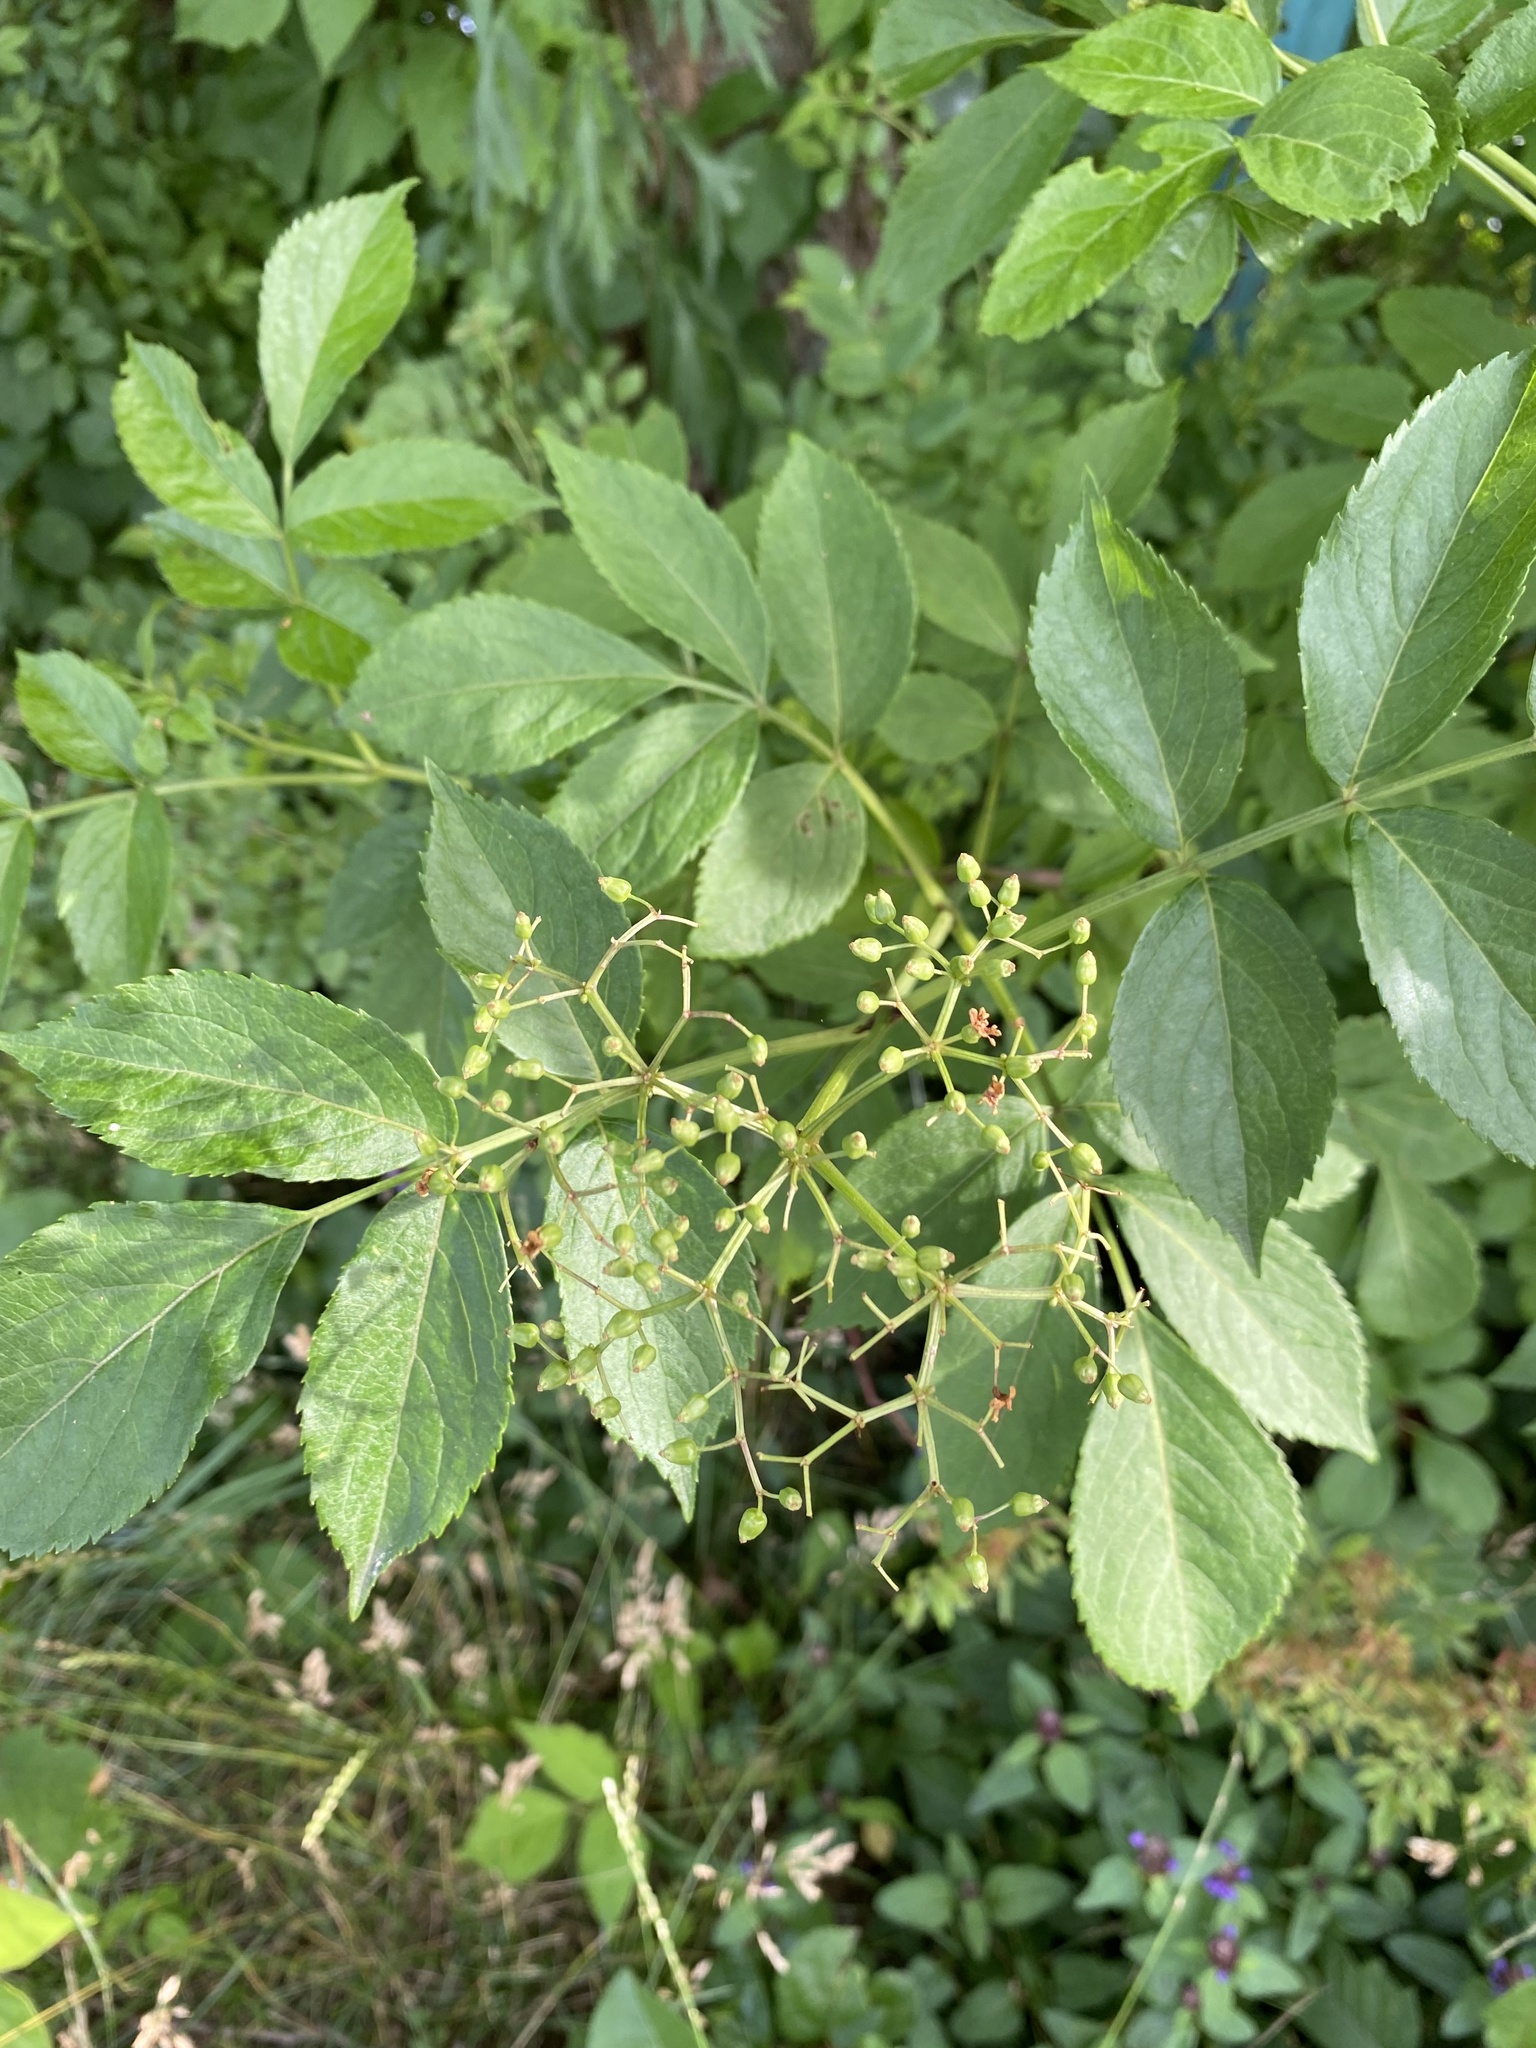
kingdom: Plantae
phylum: Tracheophyta
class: Magnoliopsida
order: Dipsacales
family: Viburnaceae
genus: Sambucus
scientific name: Sambucus canadensis
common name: American elder
